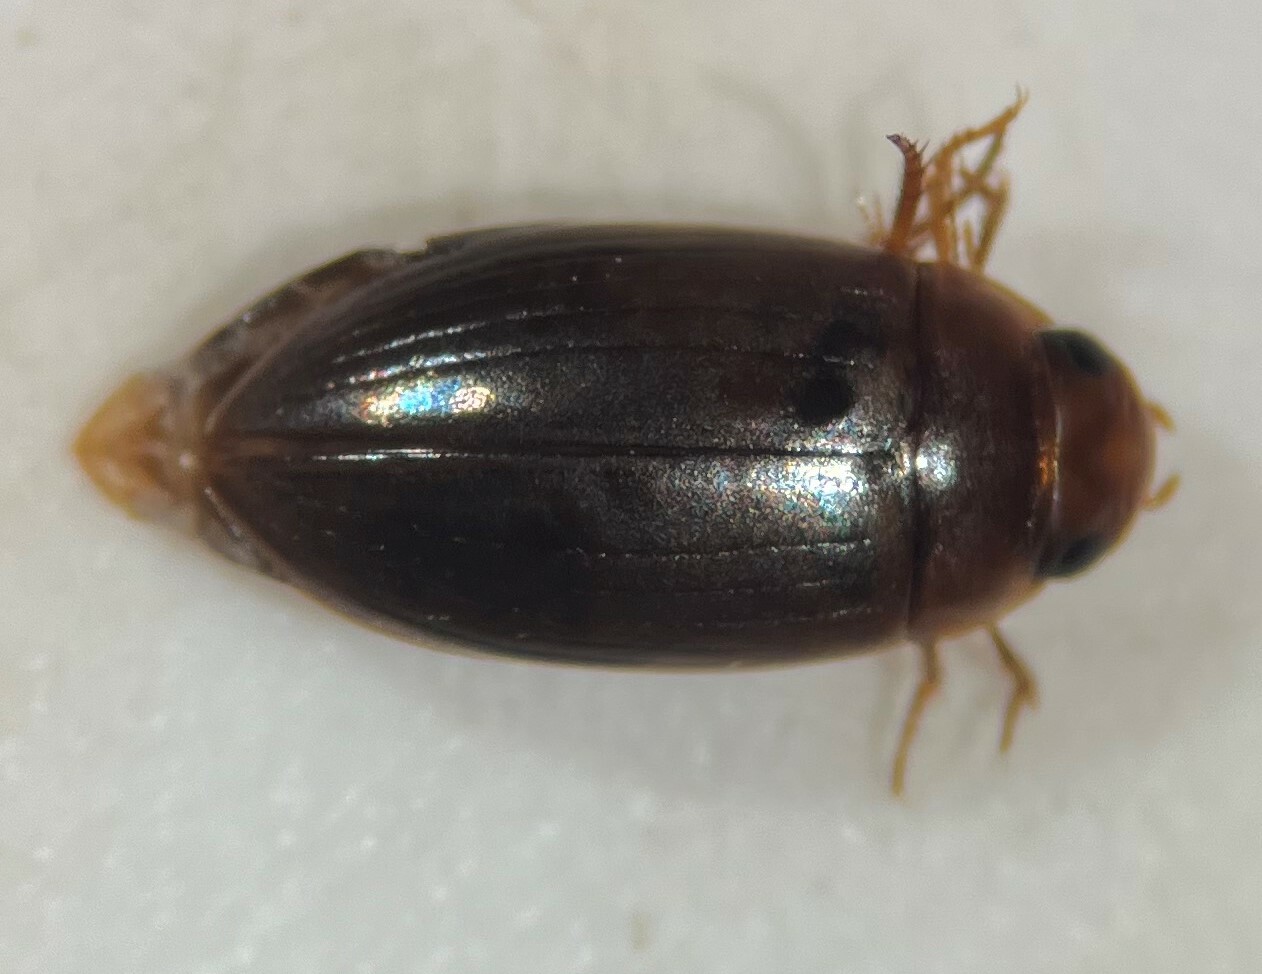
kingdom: Animalia
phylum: Arthropoda
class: Insecta
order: Coleoptera
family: Dytiscidae
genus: Copelatus
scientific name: Copelatus debilis
